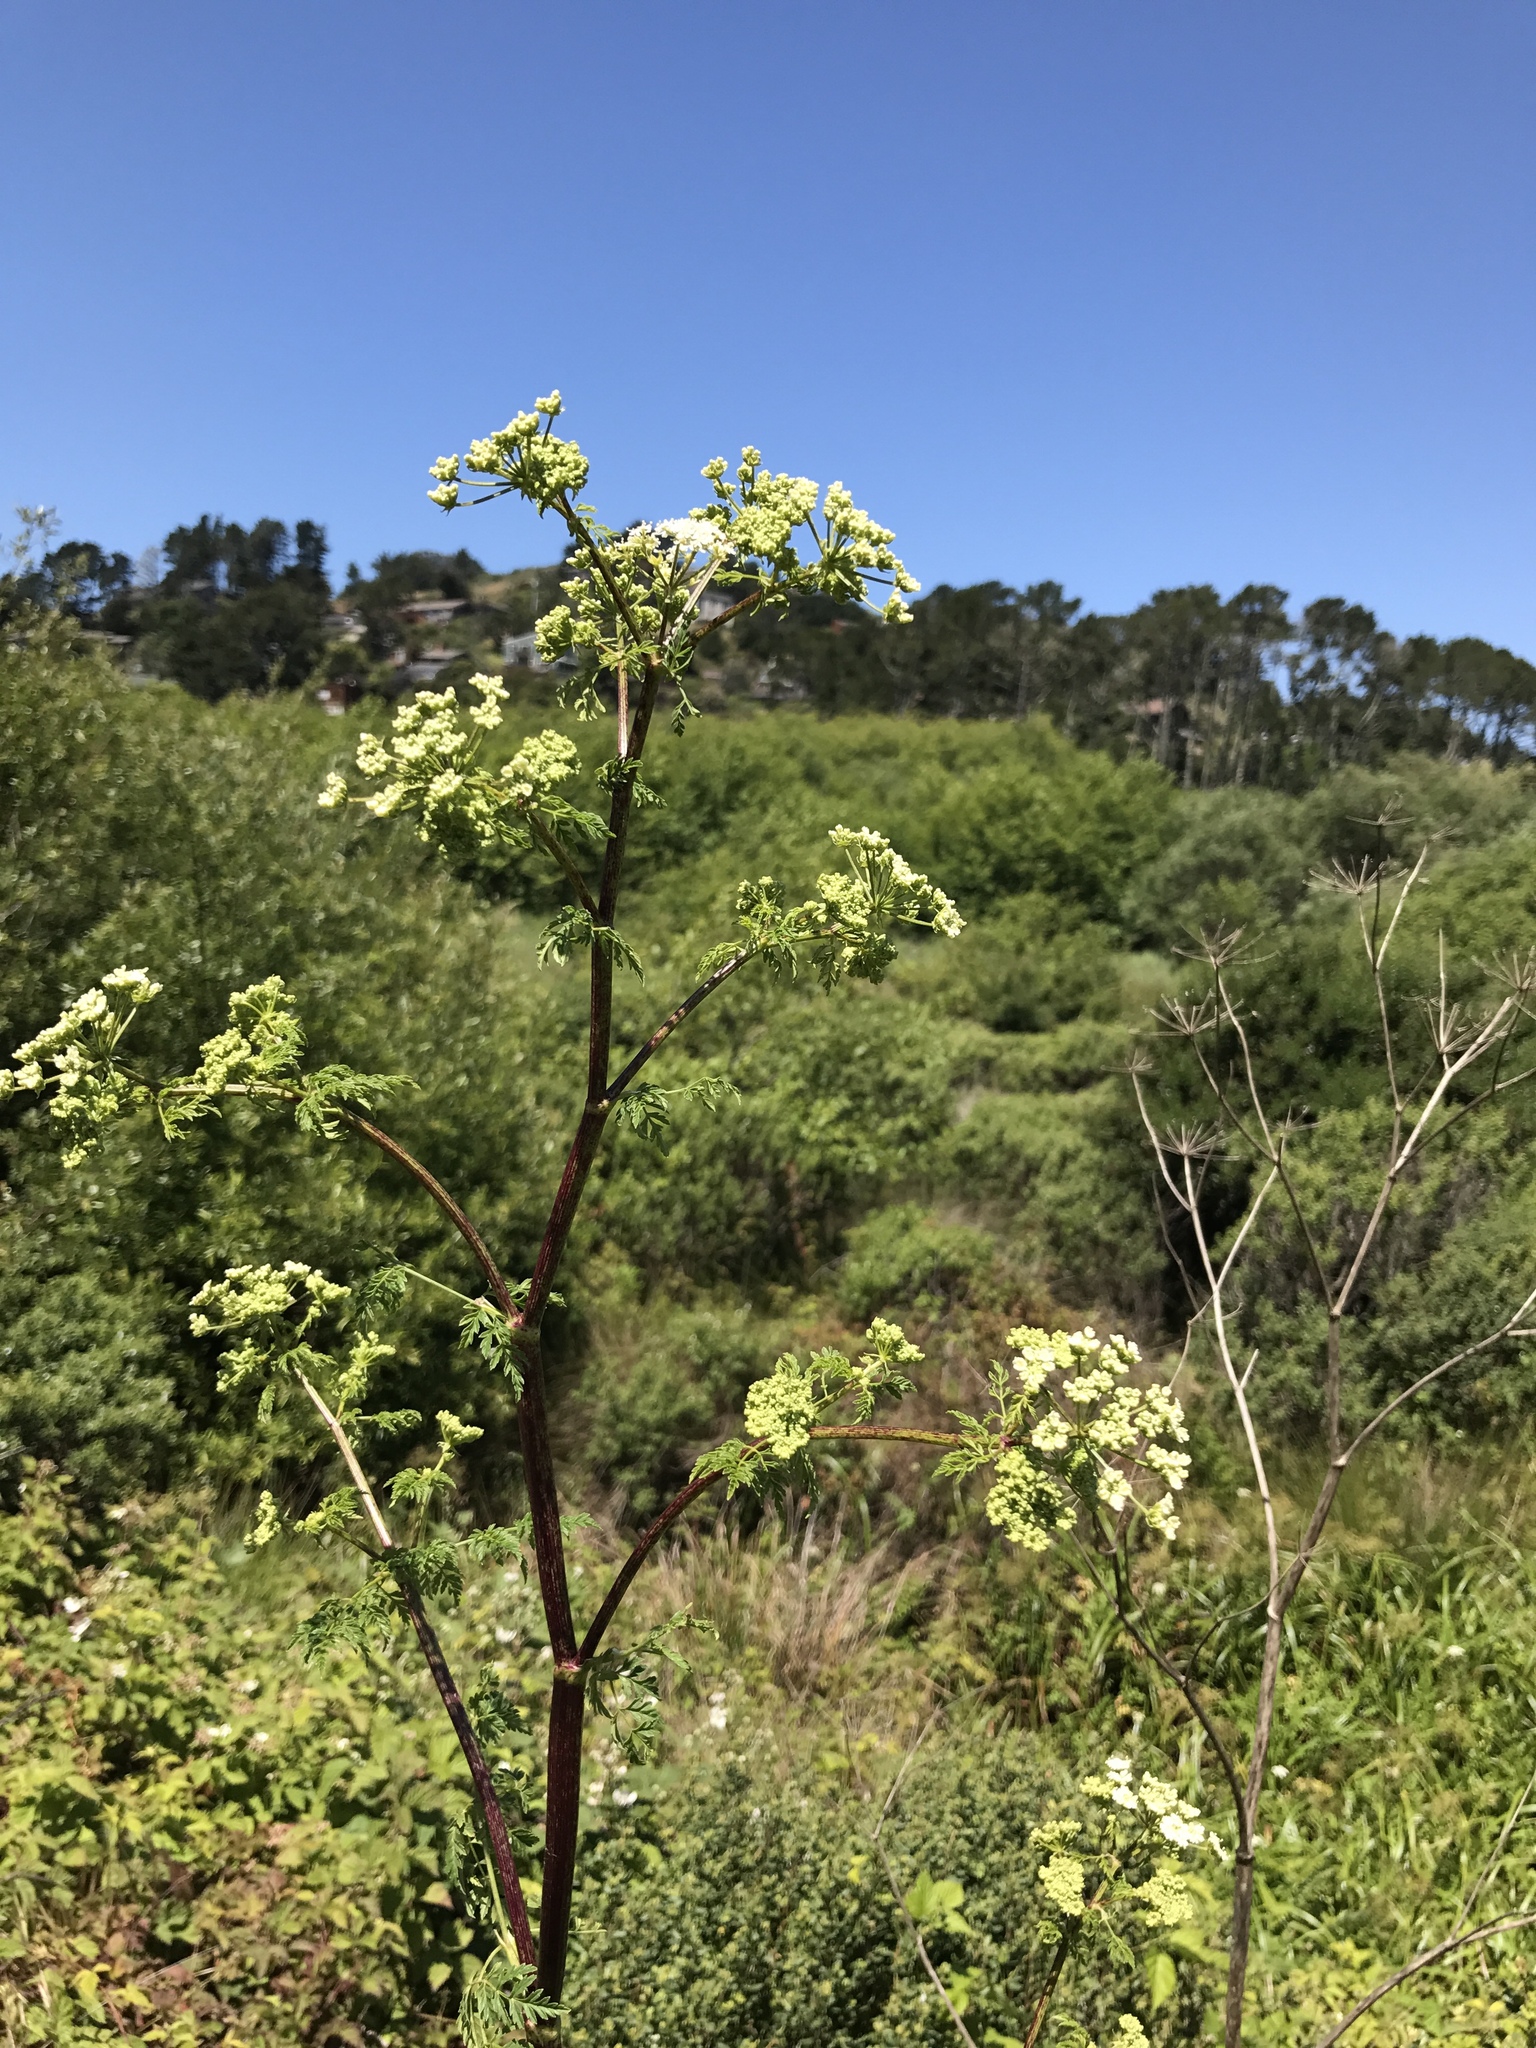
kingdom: Plantae
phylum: Tracheophyta
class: Magnoliopsida
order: Apiales
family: Apiaceae
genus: Conium
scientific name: Conium maculatum
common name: Hemlock
